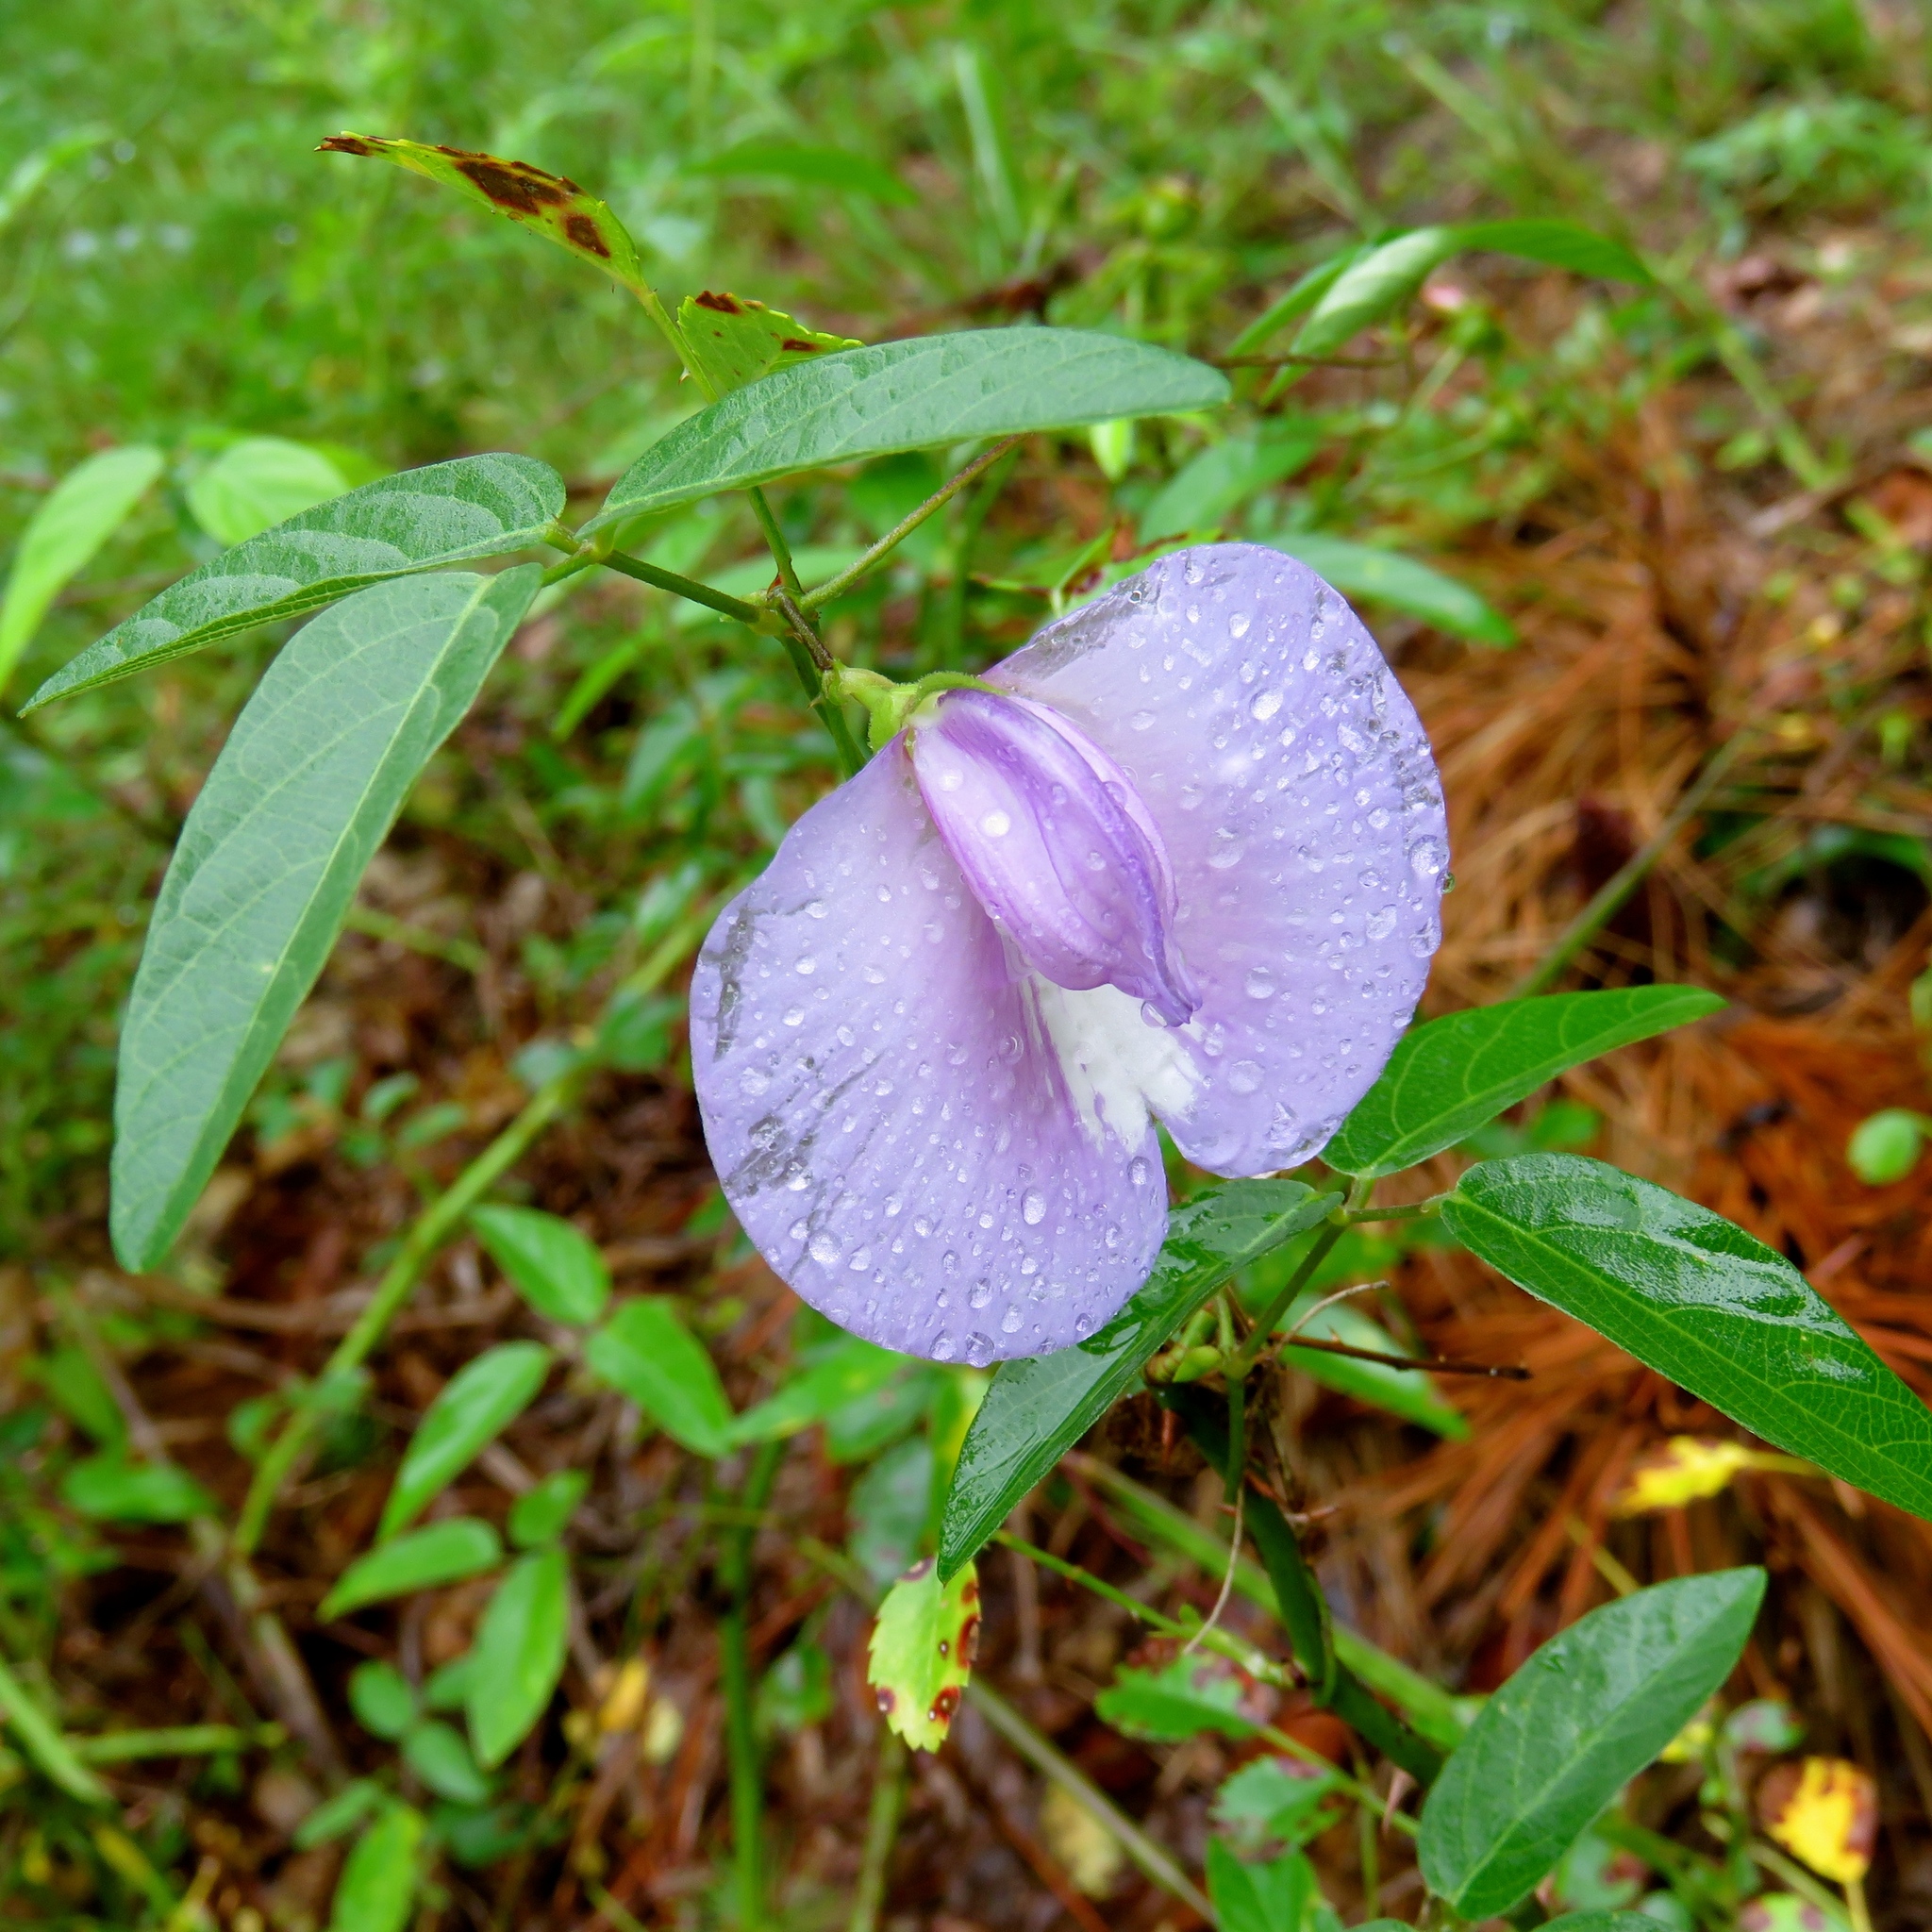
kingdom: Plantae
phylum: Tracheophyta
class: Magnoliopsida
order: Fabales
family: Fabaceae
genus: Centrosema
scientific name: Centrosema virginianum
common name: Butterfly-pea
